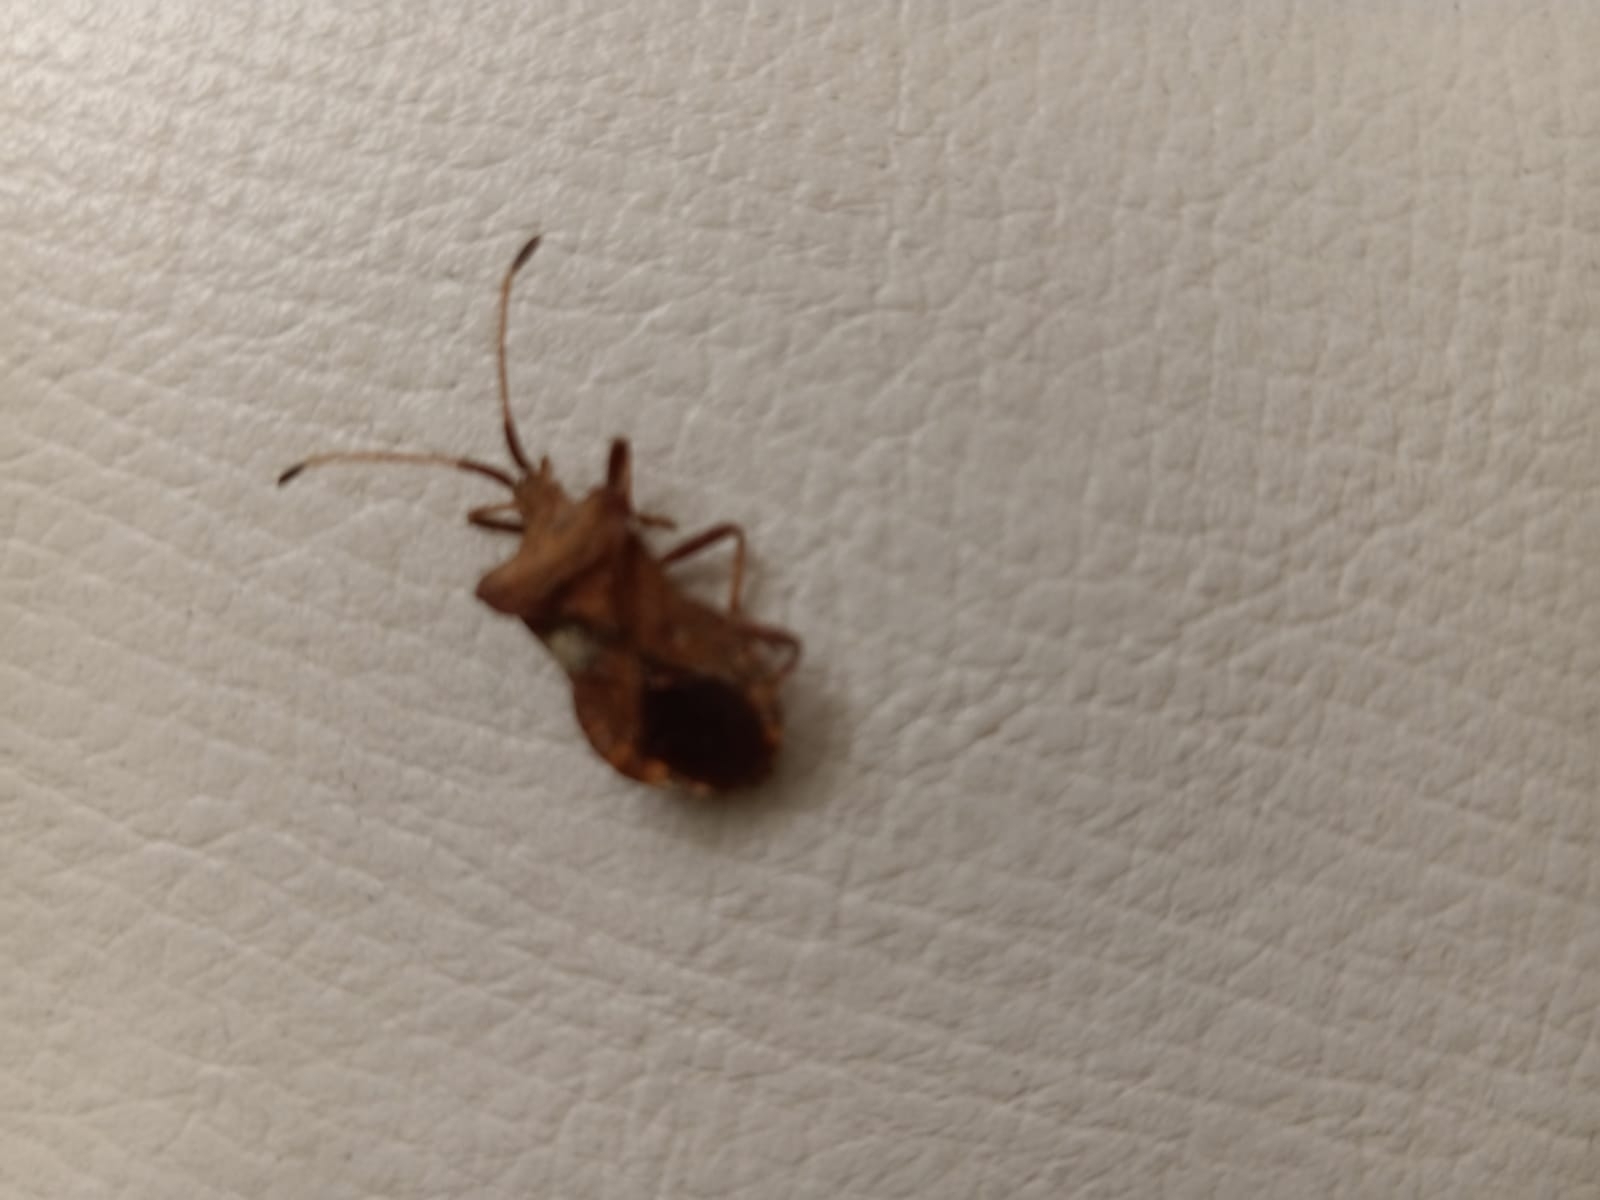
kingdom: Animalia
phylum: Arthropoda
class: Insecta
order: Hemiptera
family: Coreidae
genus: Coreus
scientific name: Coreus marginatus
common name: Dock bug
